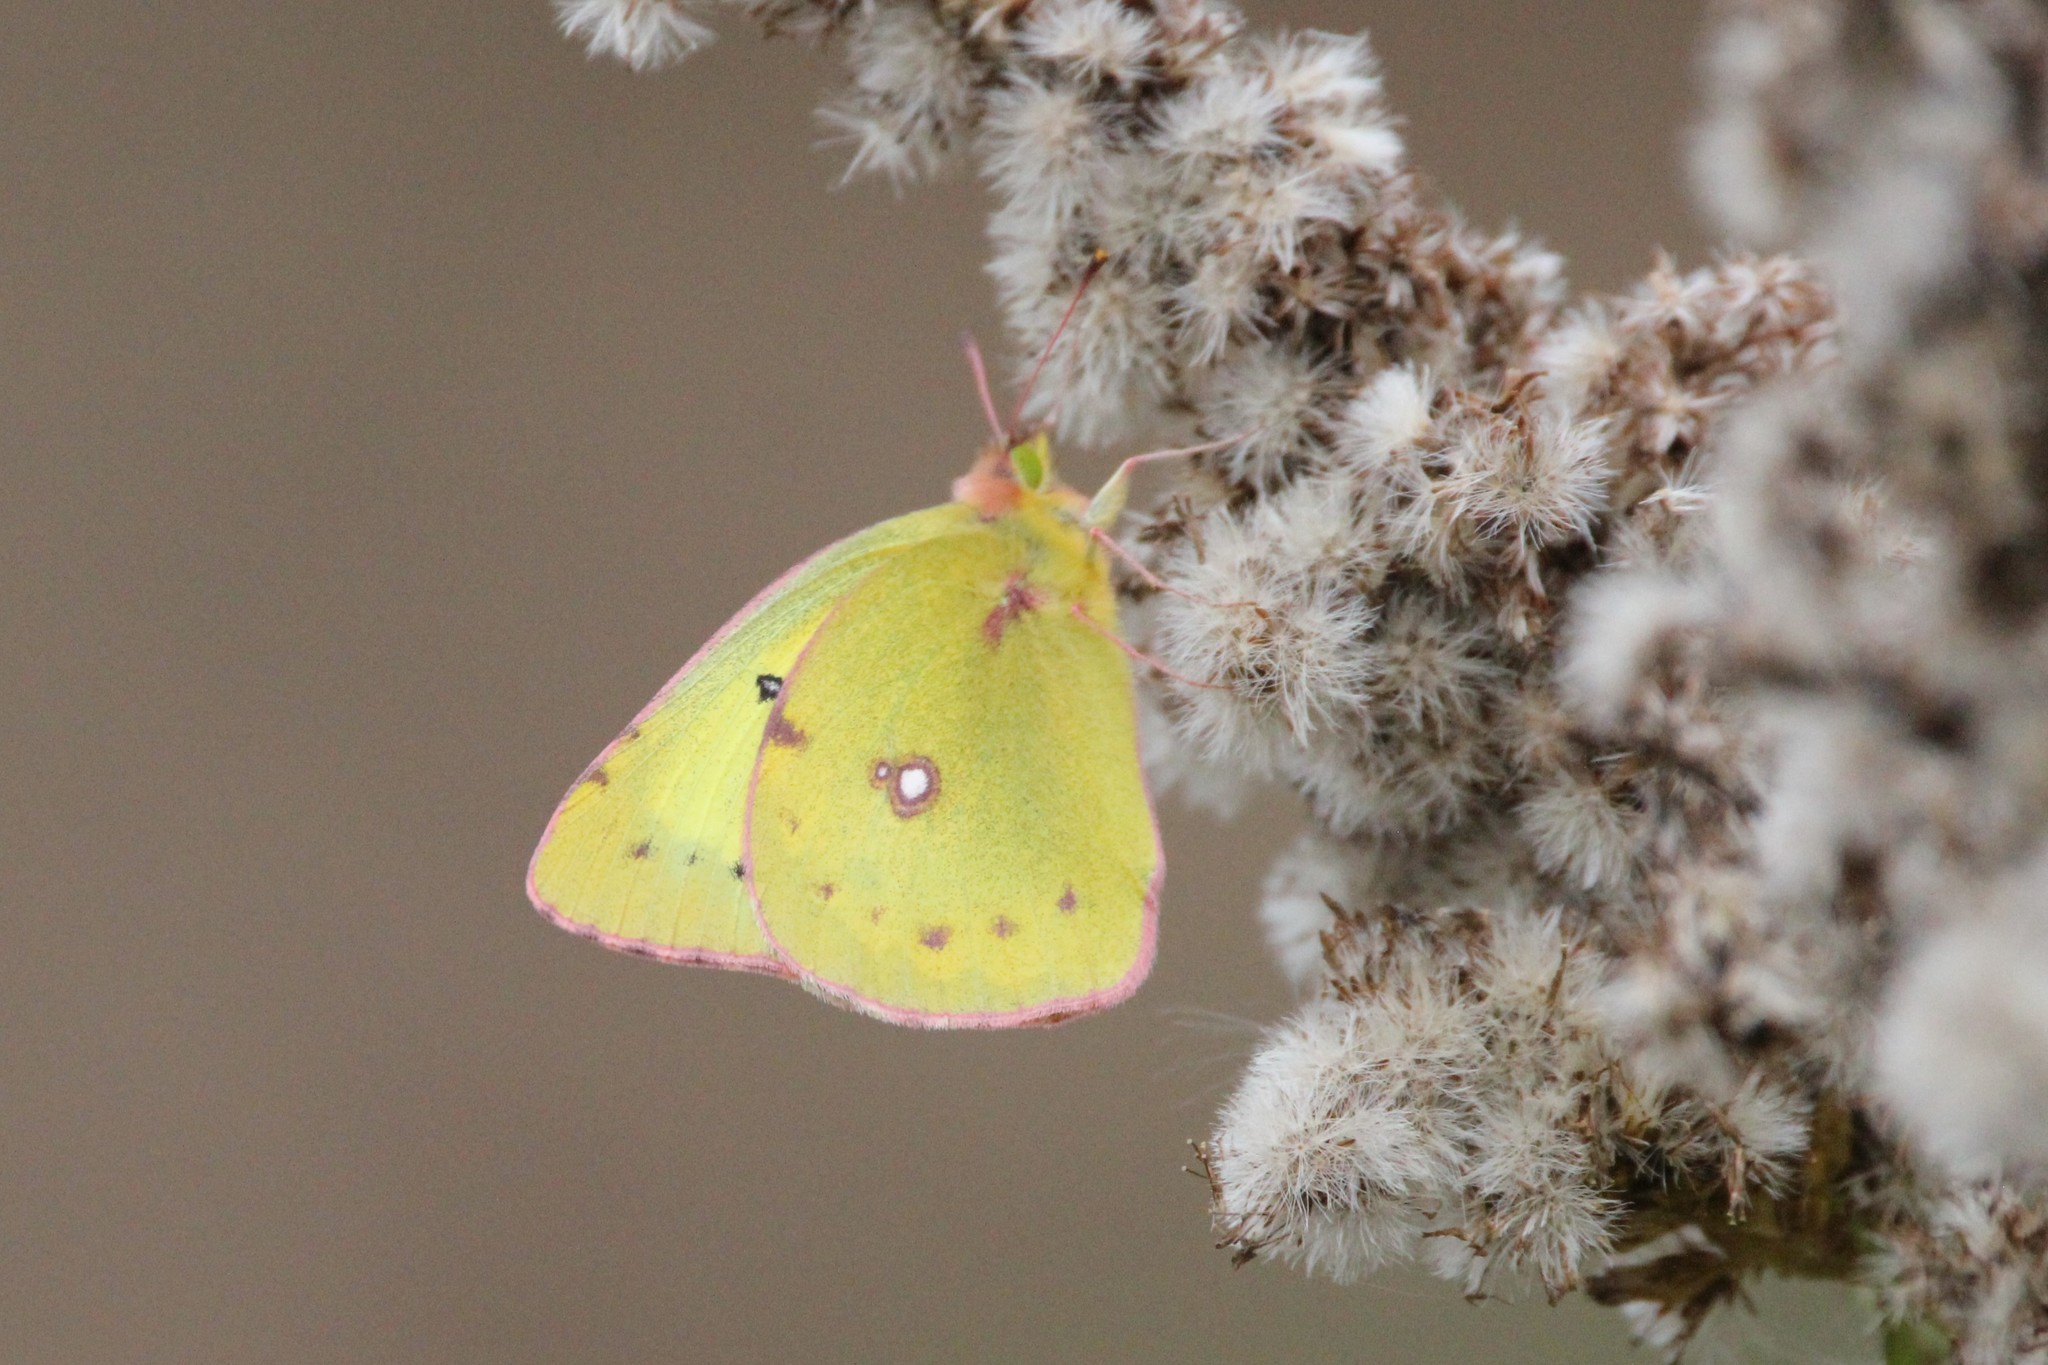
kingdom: Animalia
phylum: Arthropoda
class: Insecta
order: Lepidoptera
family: Pieridae
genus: Colias
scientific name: Colias philodice
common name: Clouded sulphur
